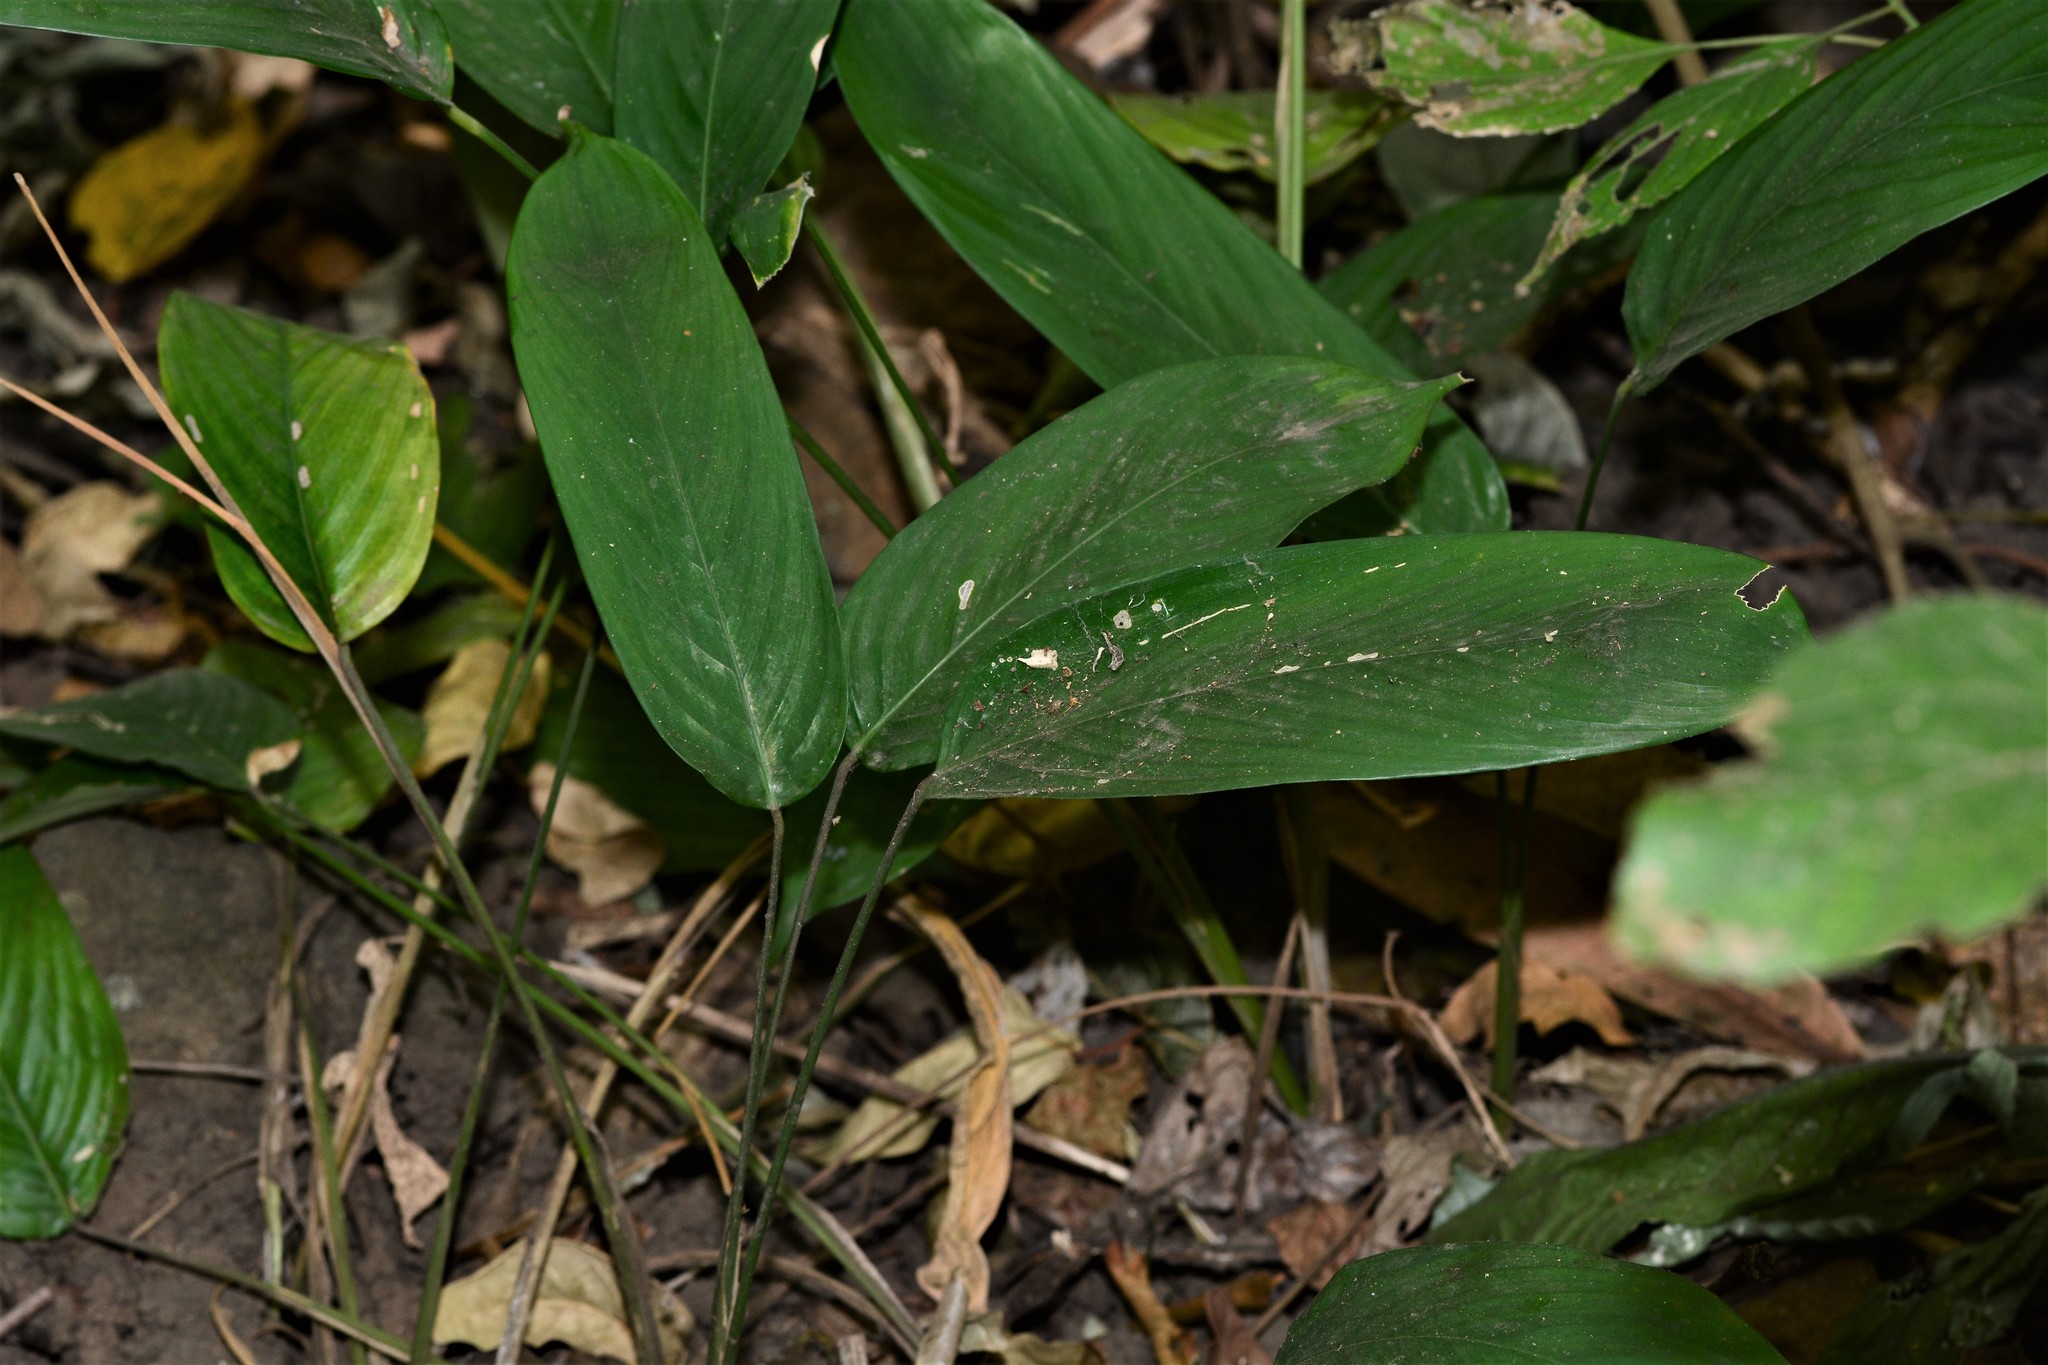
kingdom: Plantae
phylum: Tracheophyta
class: Liliopsida
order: Zingiberales
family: Marantaceae
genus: Stachyphrynium
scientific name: Stachyphrynium spicatum
